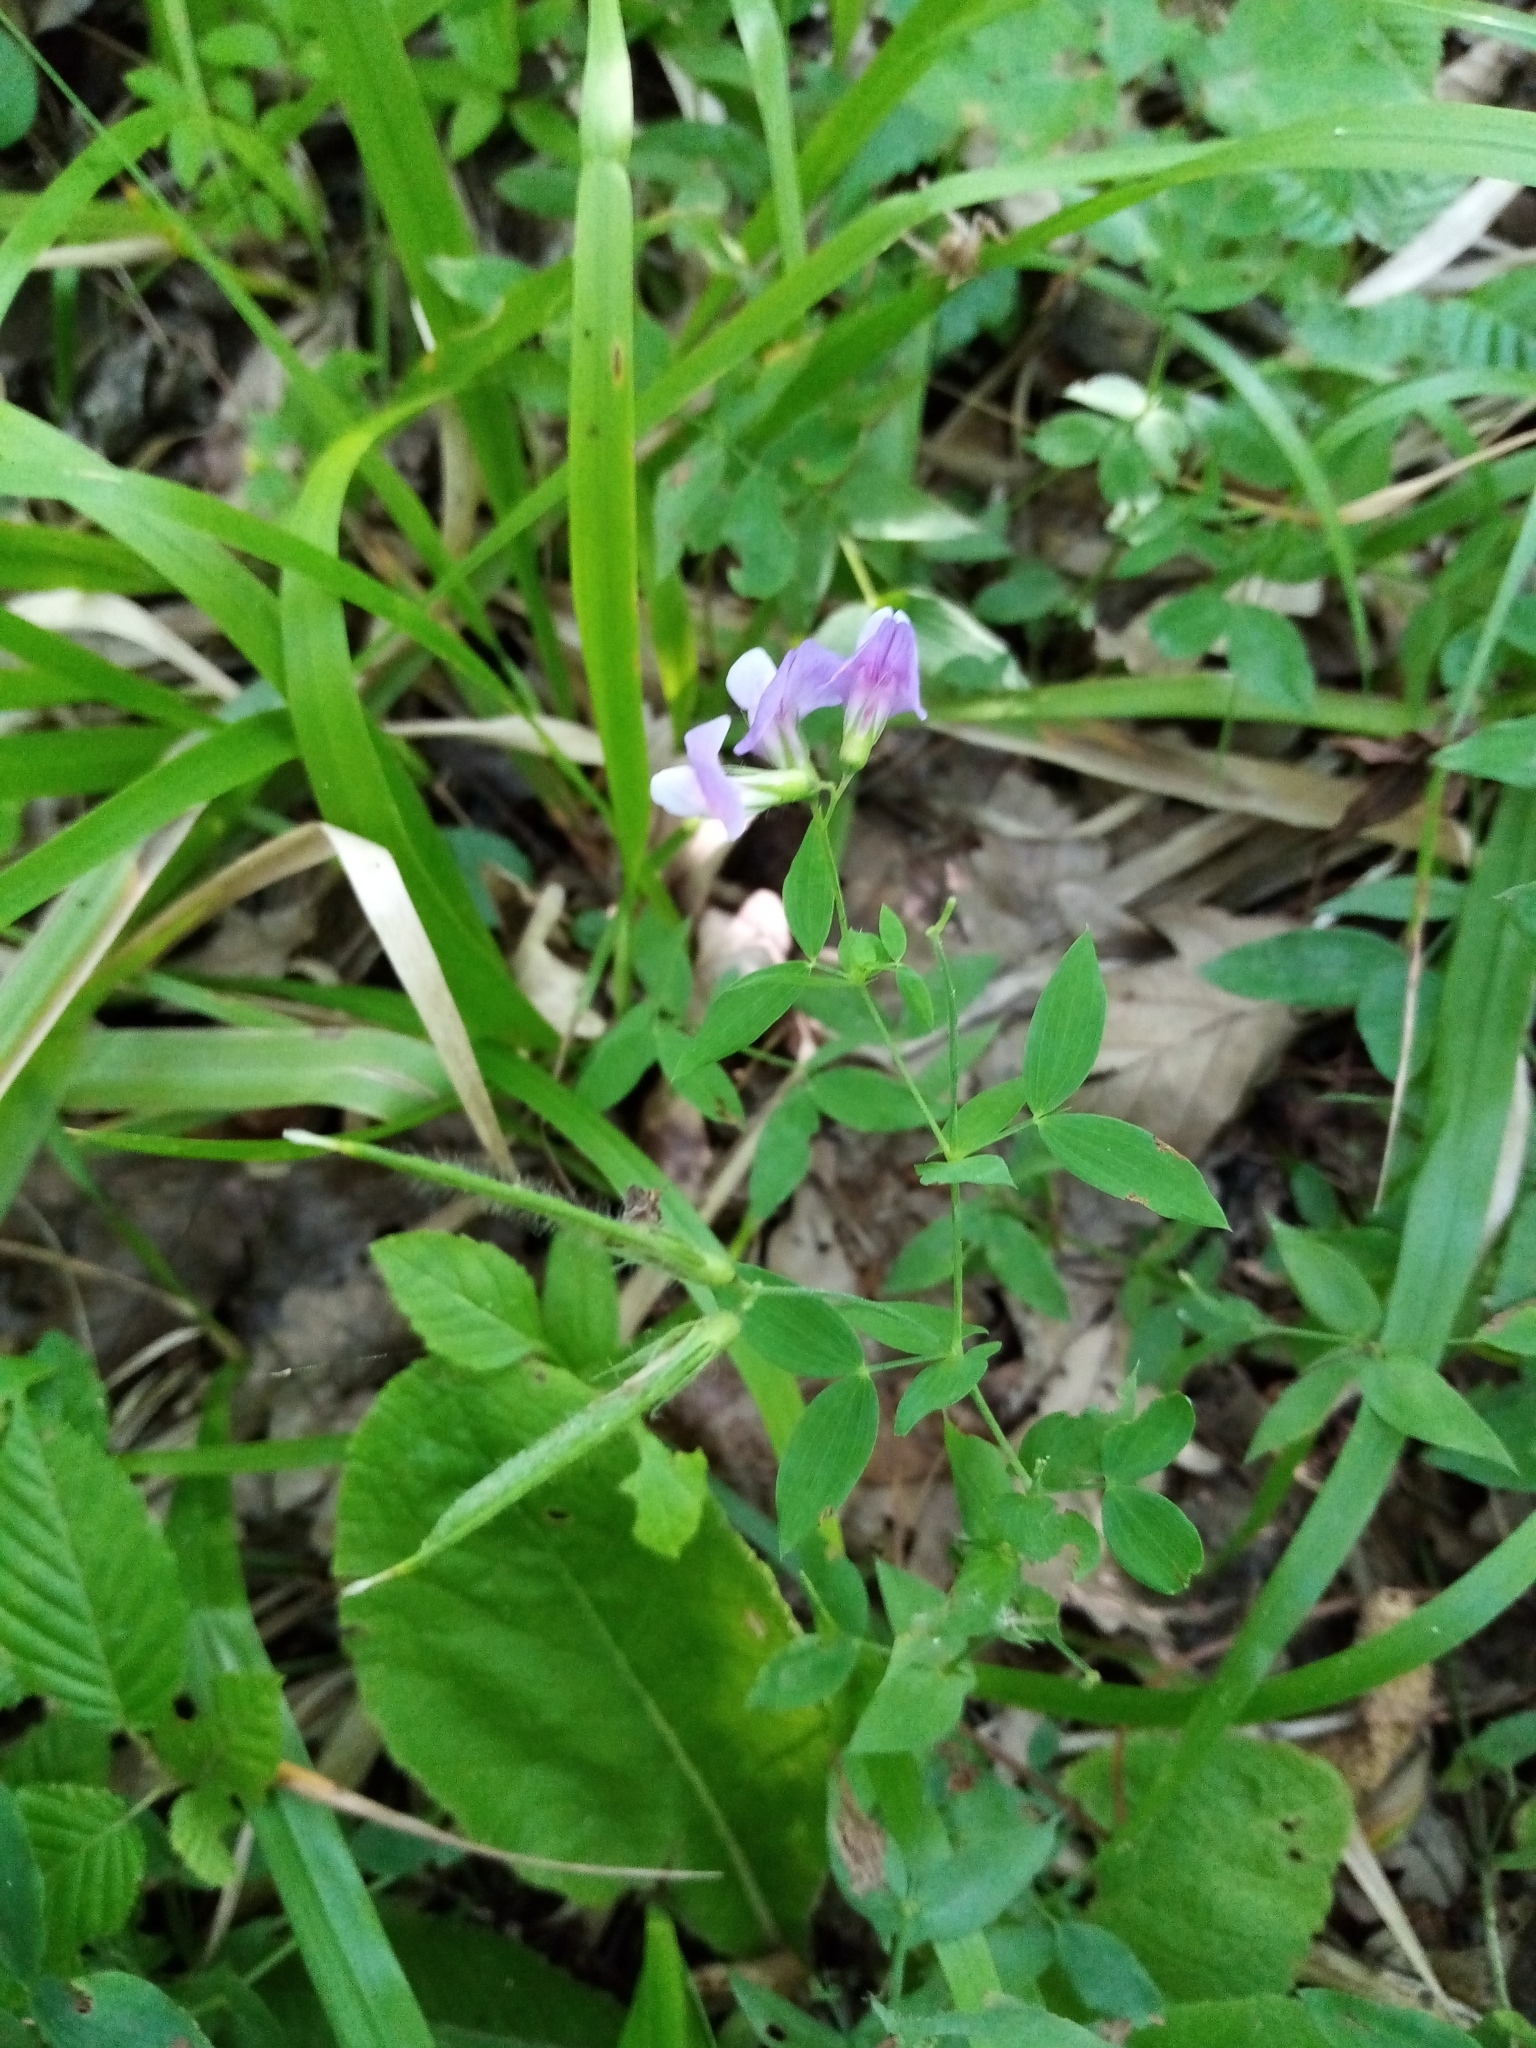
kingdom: Plantae
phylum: Tracheophyta
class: Magnoliopsida
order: Fabales
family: Fabaceae
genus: Lathyrus
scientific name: Lathyrus laxiflorus
